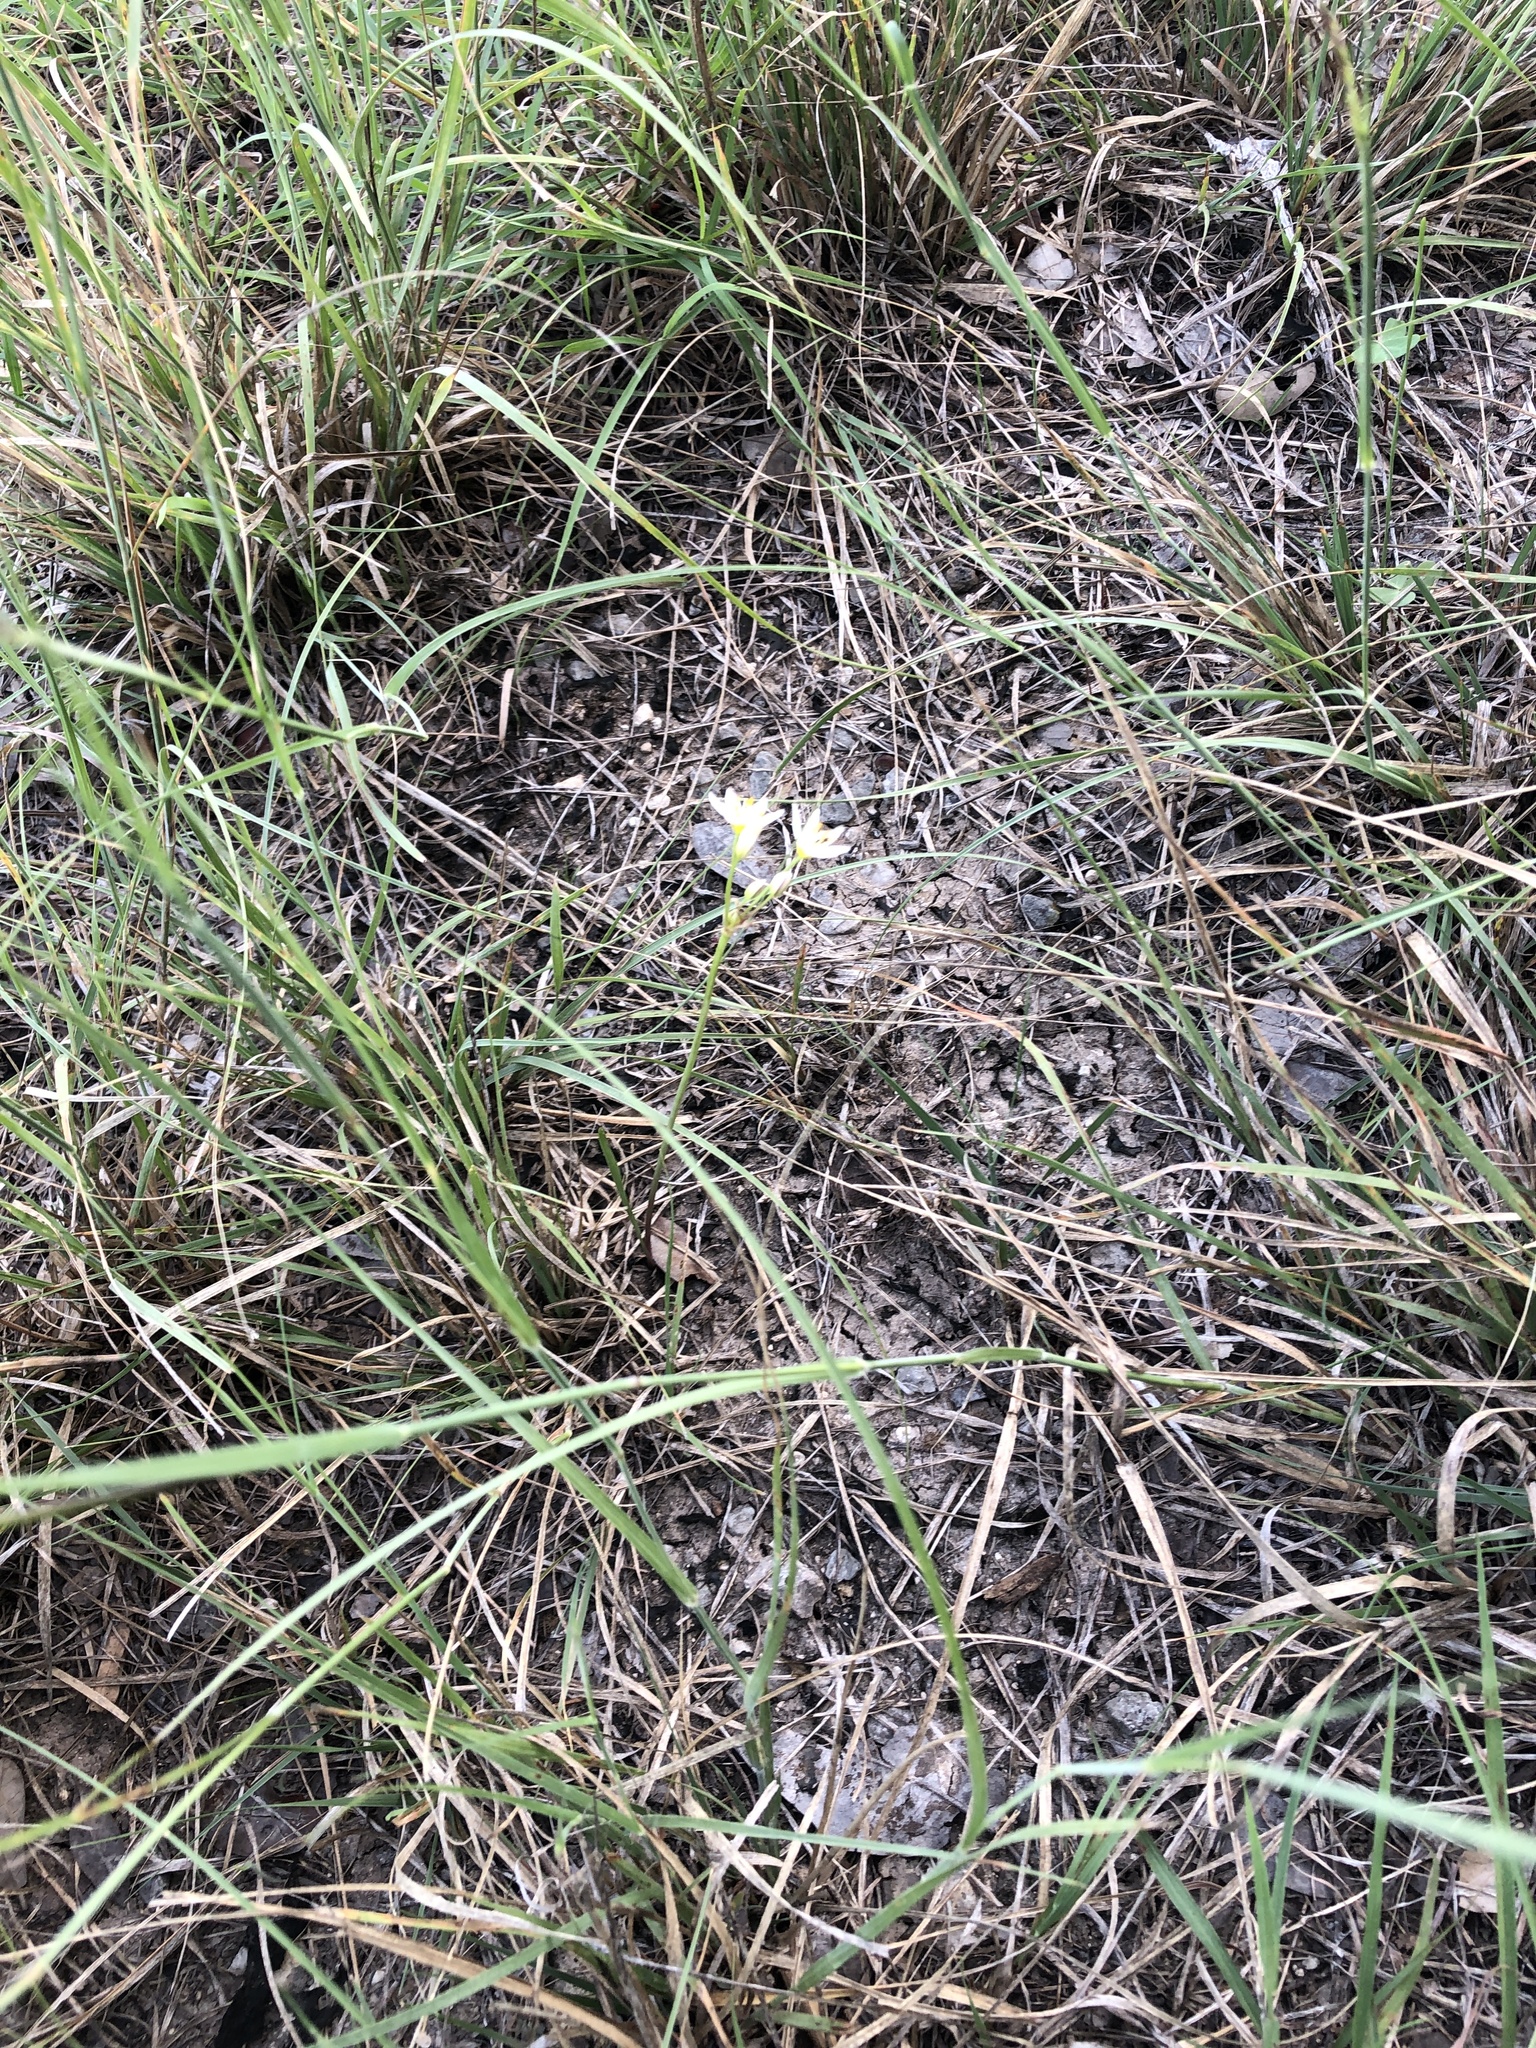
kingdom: Plantae
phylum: Tracheophyta
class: Liliopsida
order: Asparagales
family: Amaryllidaceae
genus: Nothoscordum
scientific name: Nothoscordum bivalve
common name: Crow-poison
